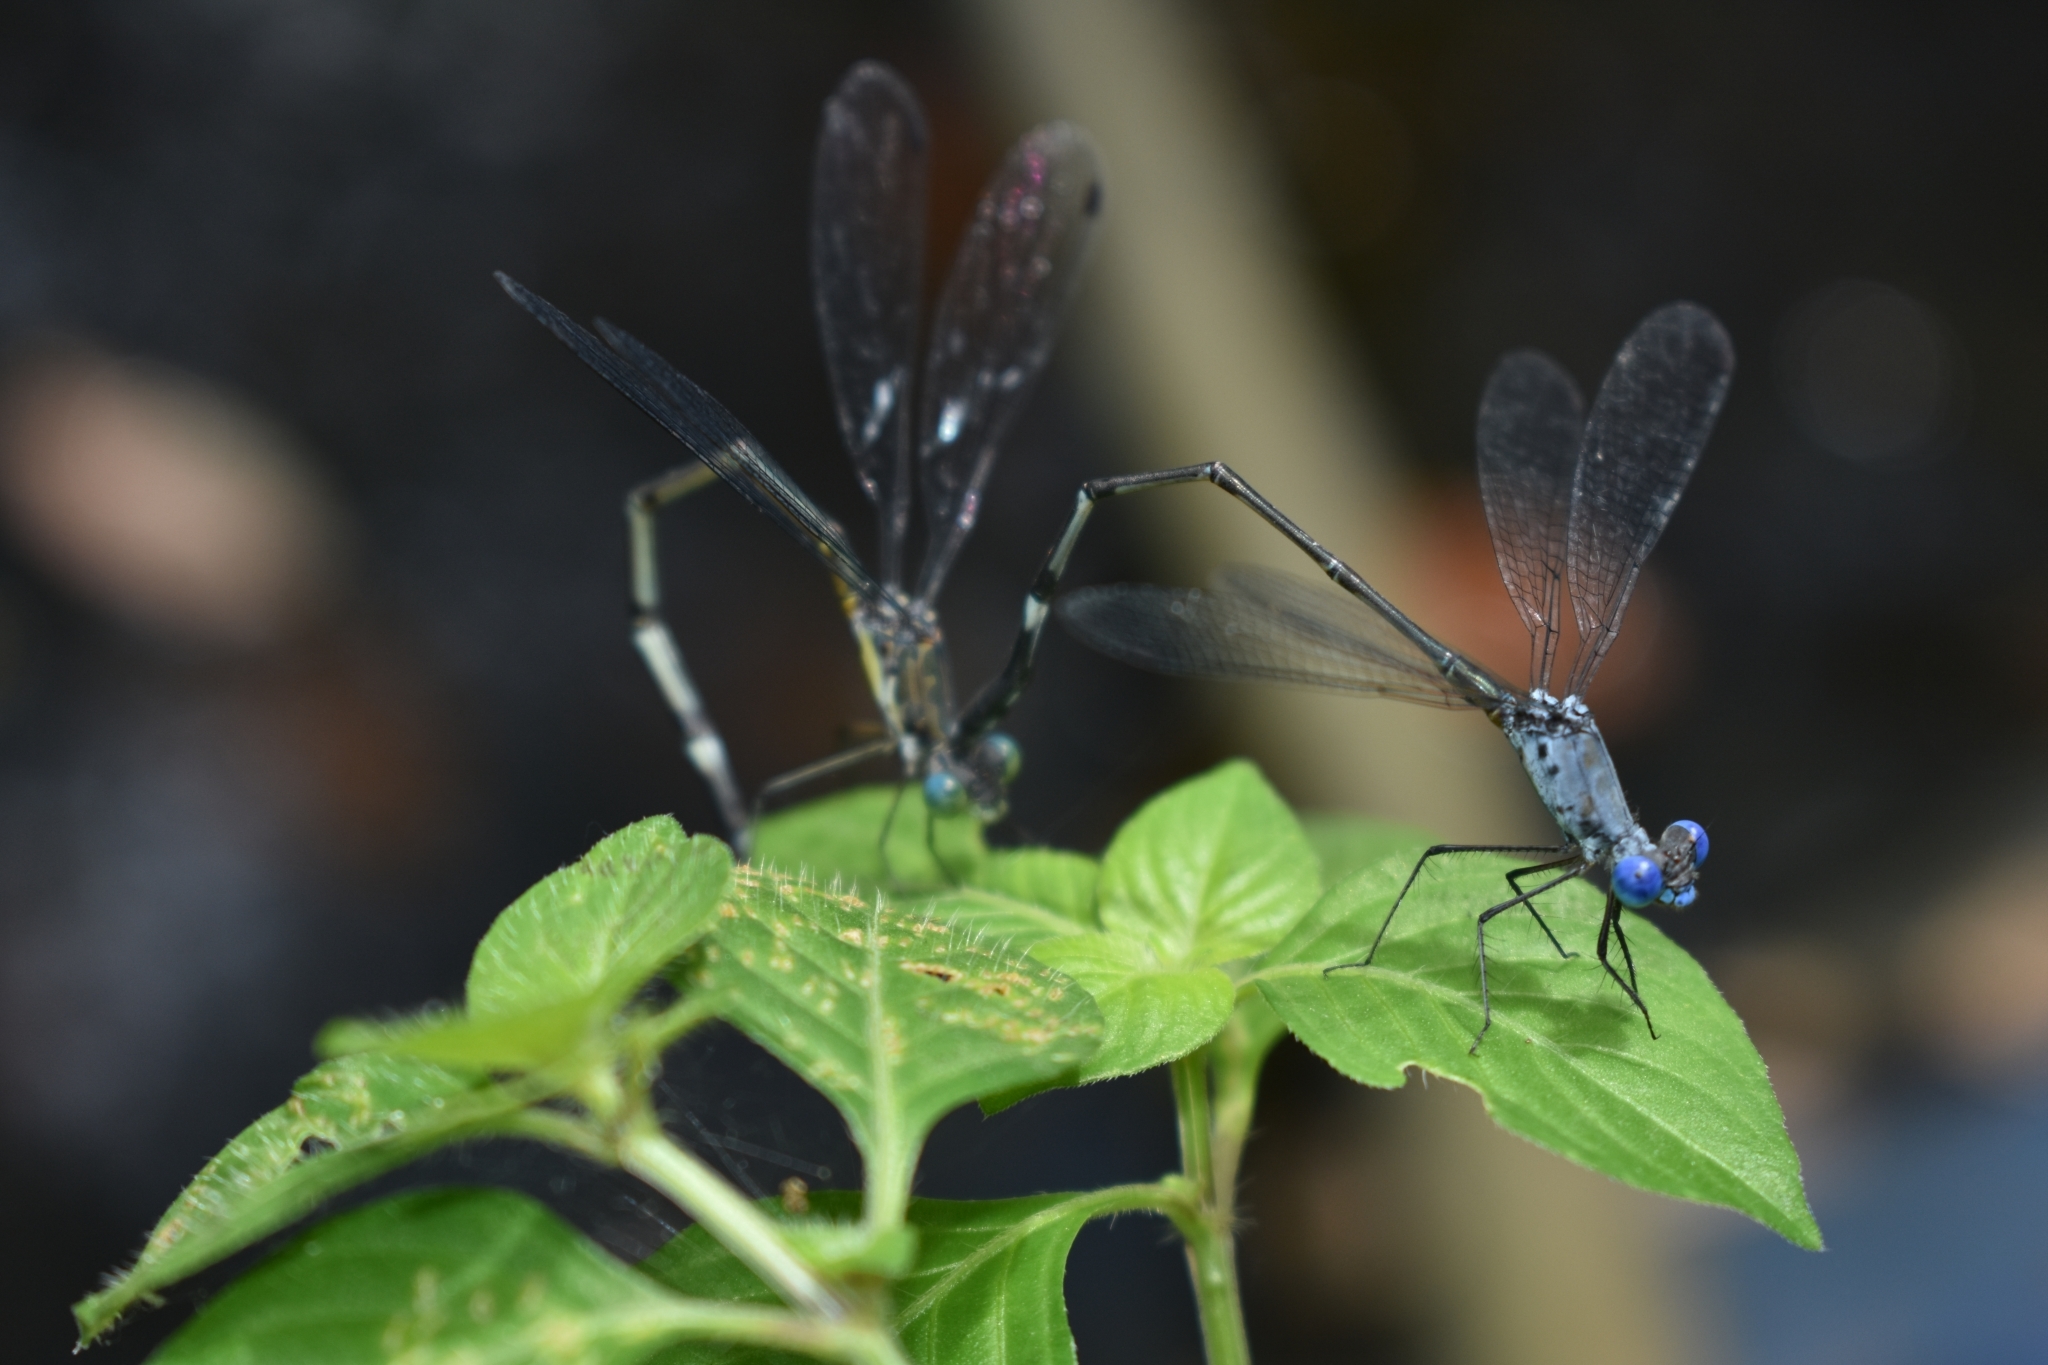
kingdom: Animalia
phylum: Arthropoda
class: Insecta
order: Odonata
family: Lestidae
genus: Lestes
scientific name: Lestes dorothea
